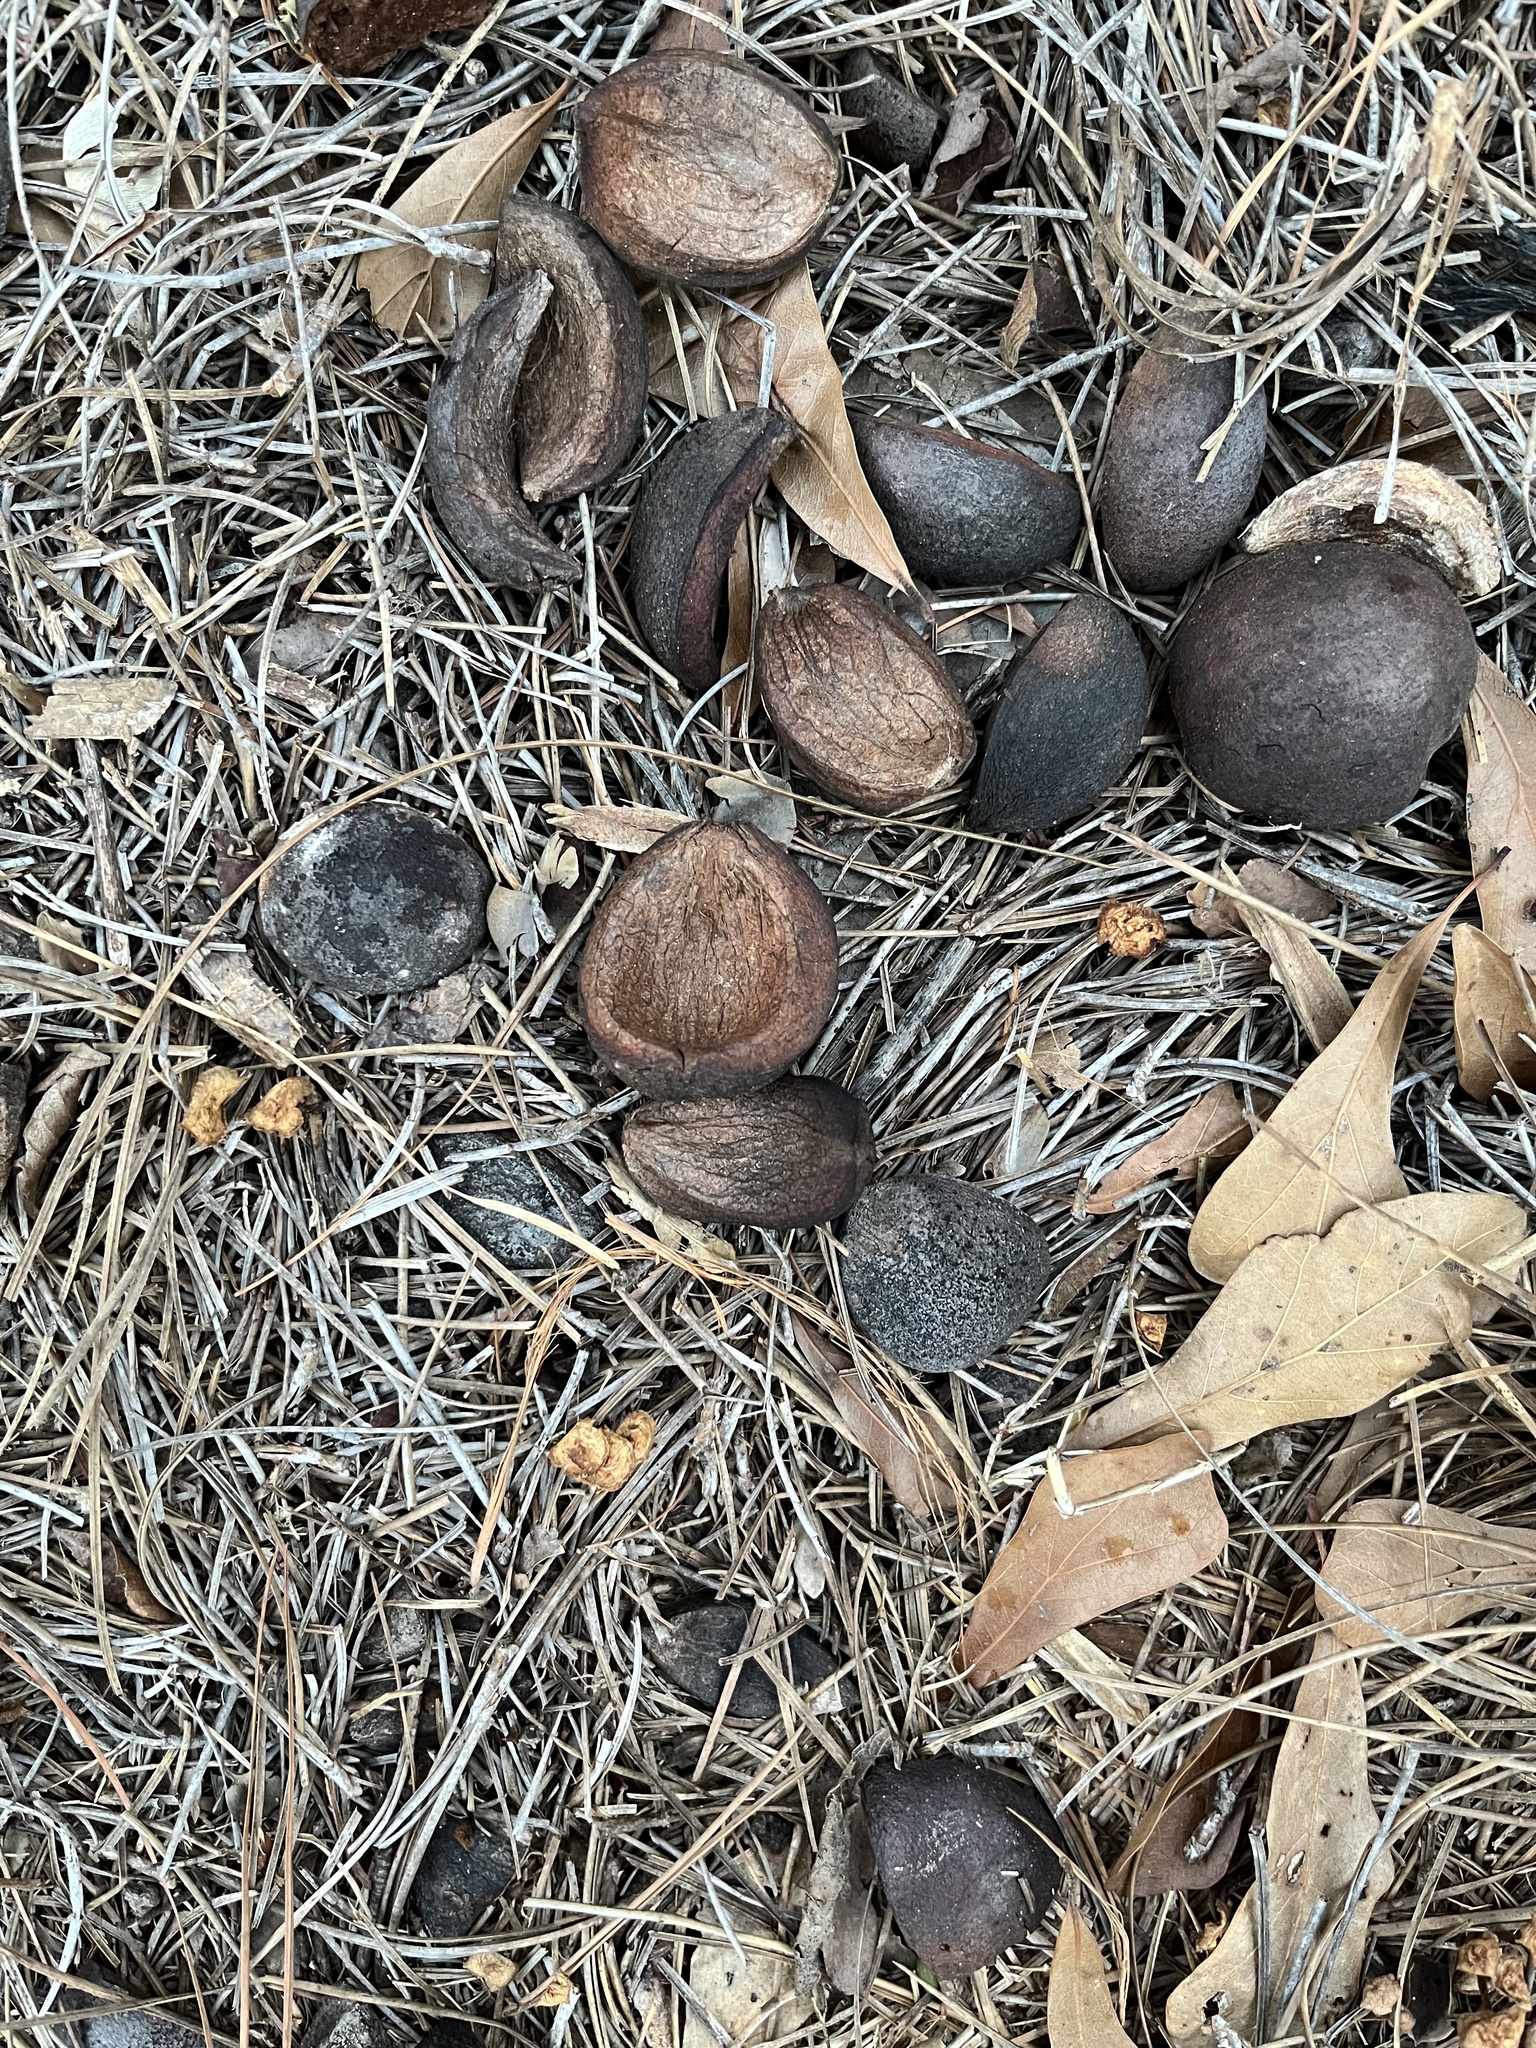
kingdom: Plantae
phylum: Tracheophyta
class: Magnoliopsida
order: Fagales
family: Juglandaceae
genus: Carya
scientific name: Carya alba
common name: Mockernut hickory
